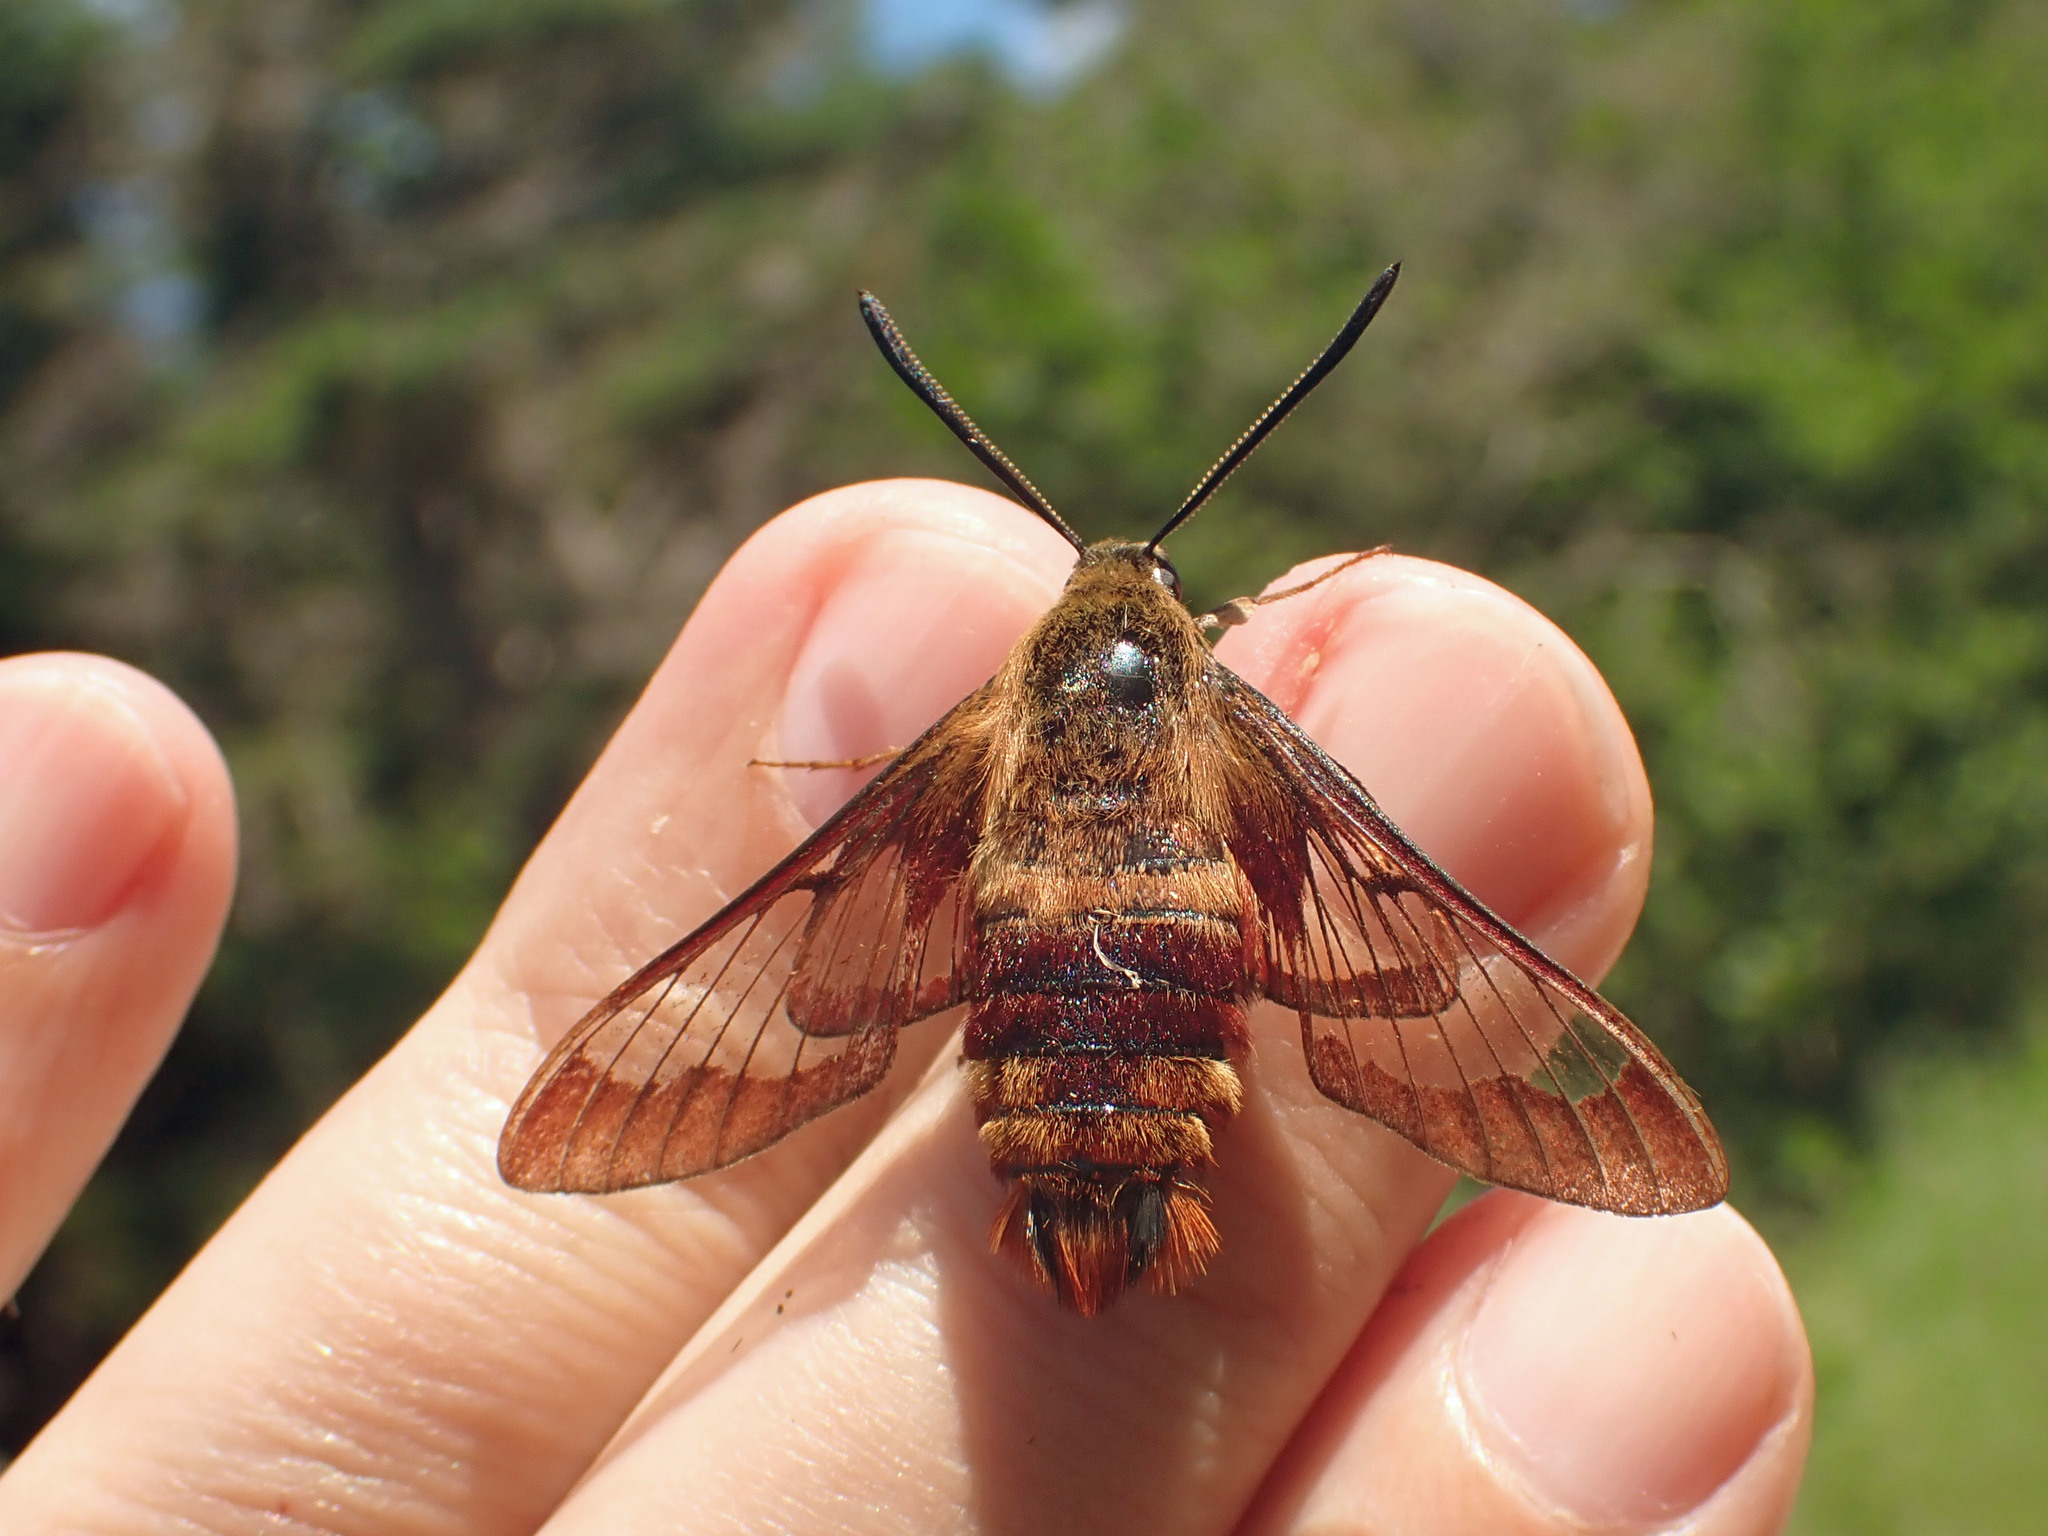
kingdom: Animalia
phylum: Arthropoda
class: Insecta
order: Lepidoptera
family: Sphingidae
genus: Hemaris
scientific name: Hemaris thysbe
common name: Common clear-wing
